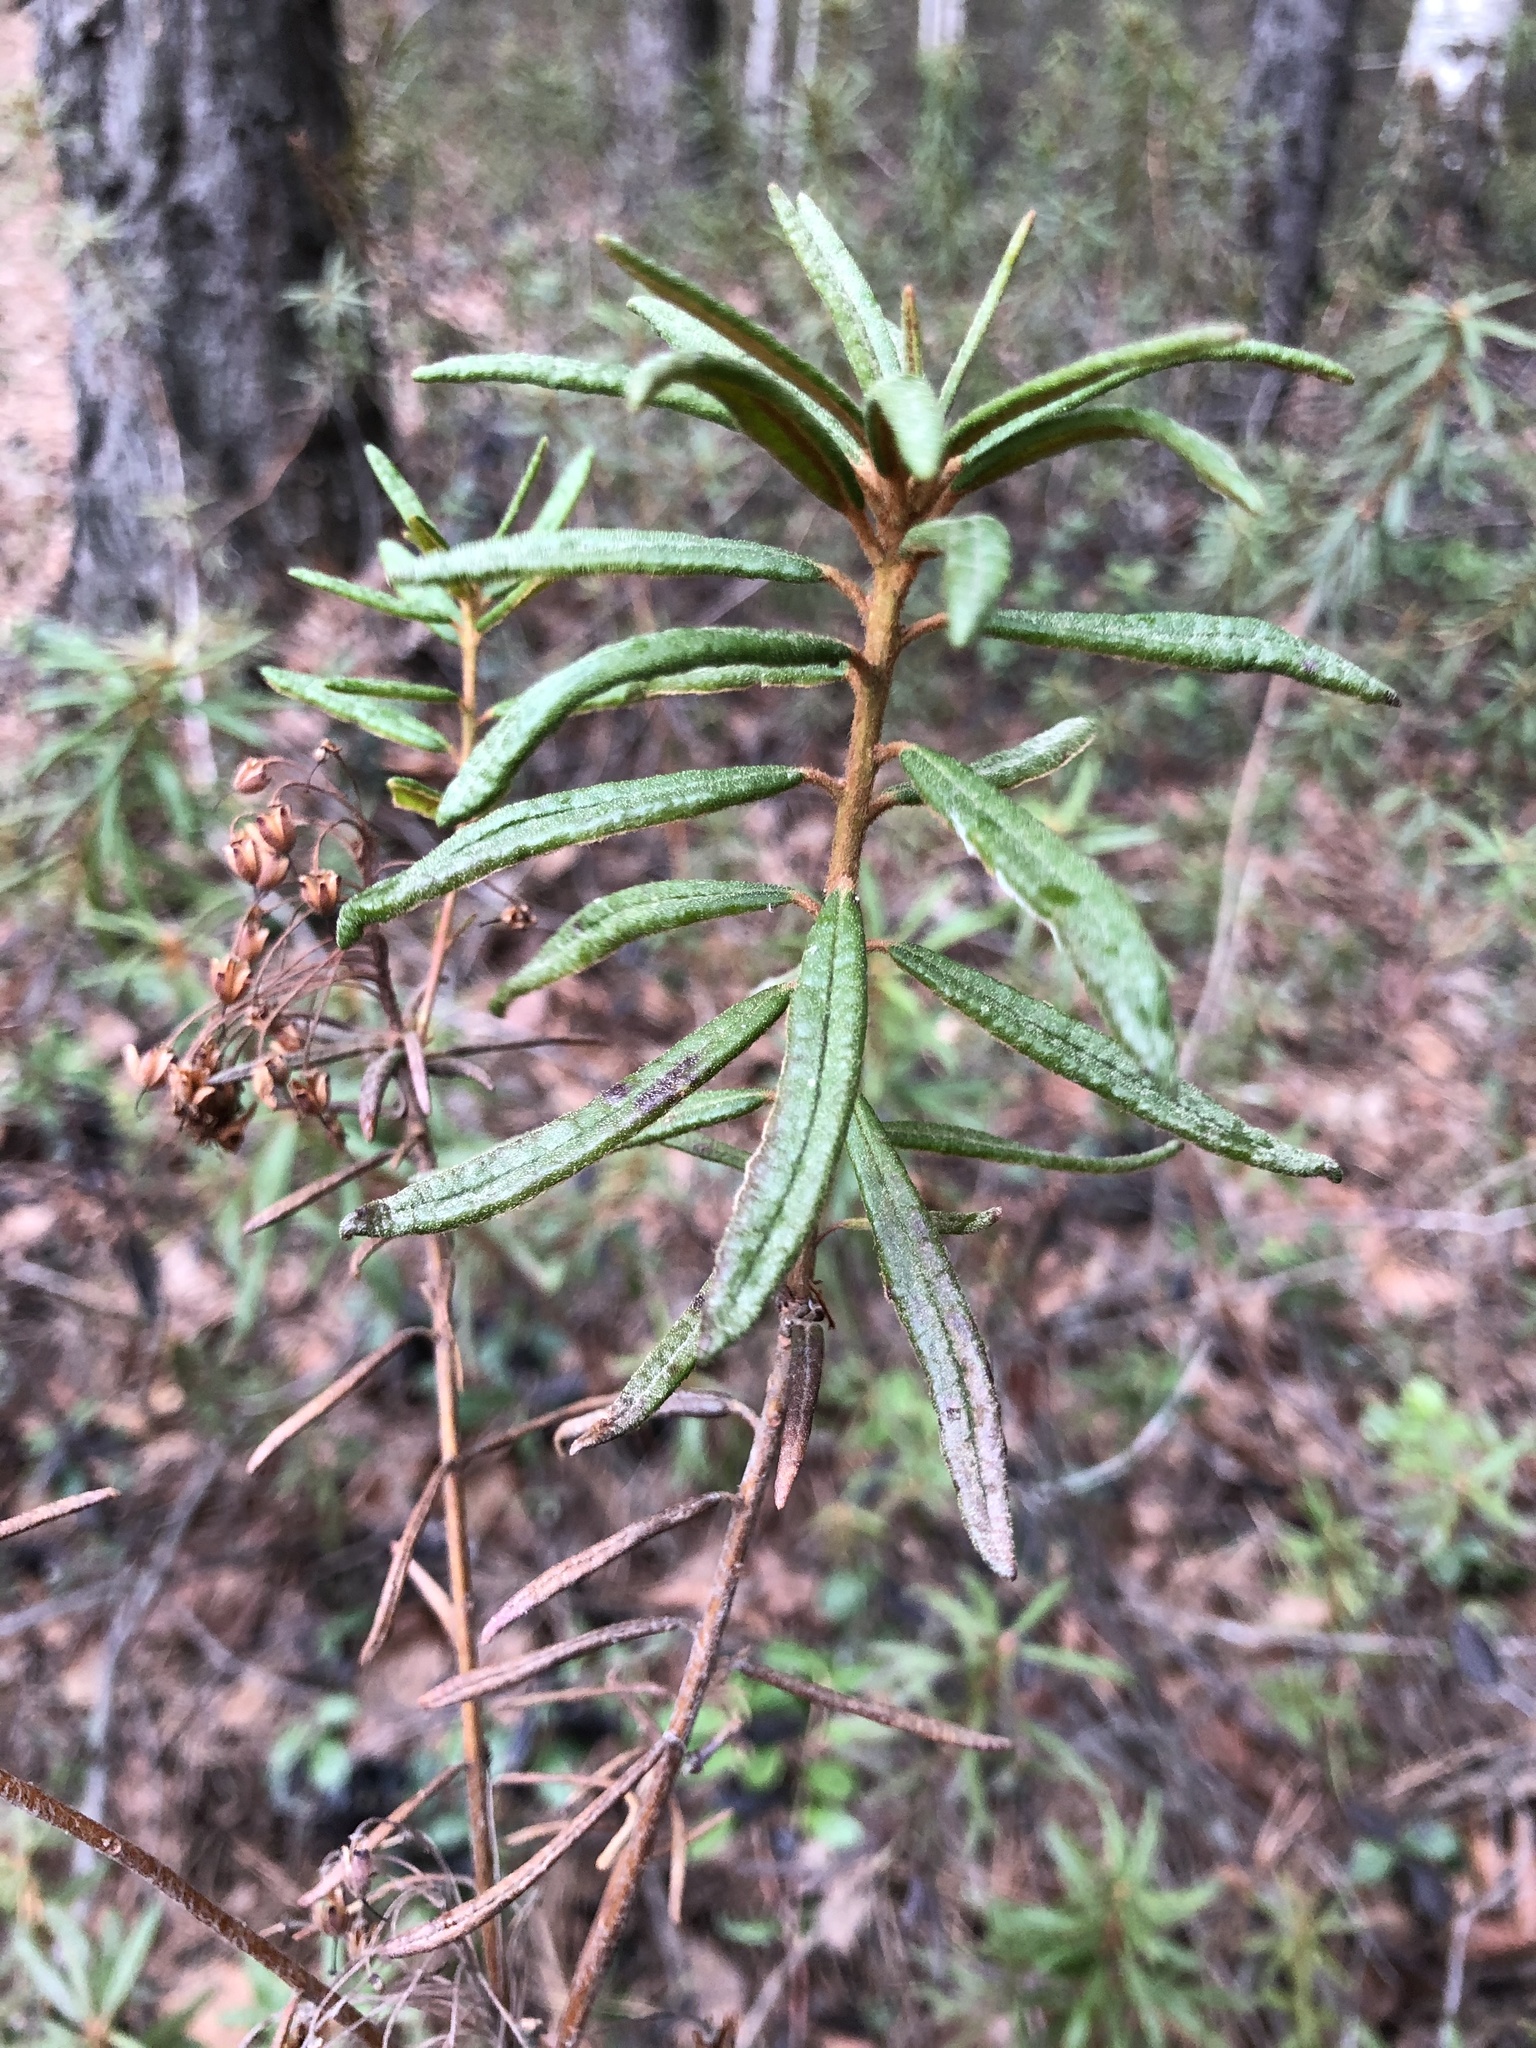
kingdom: Plantae
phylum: Tracheophyta
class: Magnoliopsida
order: Ericales
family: Ericaceae
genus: Rhododendron
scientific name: Rhododendron tomentosum
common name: Marsh labrador tea
